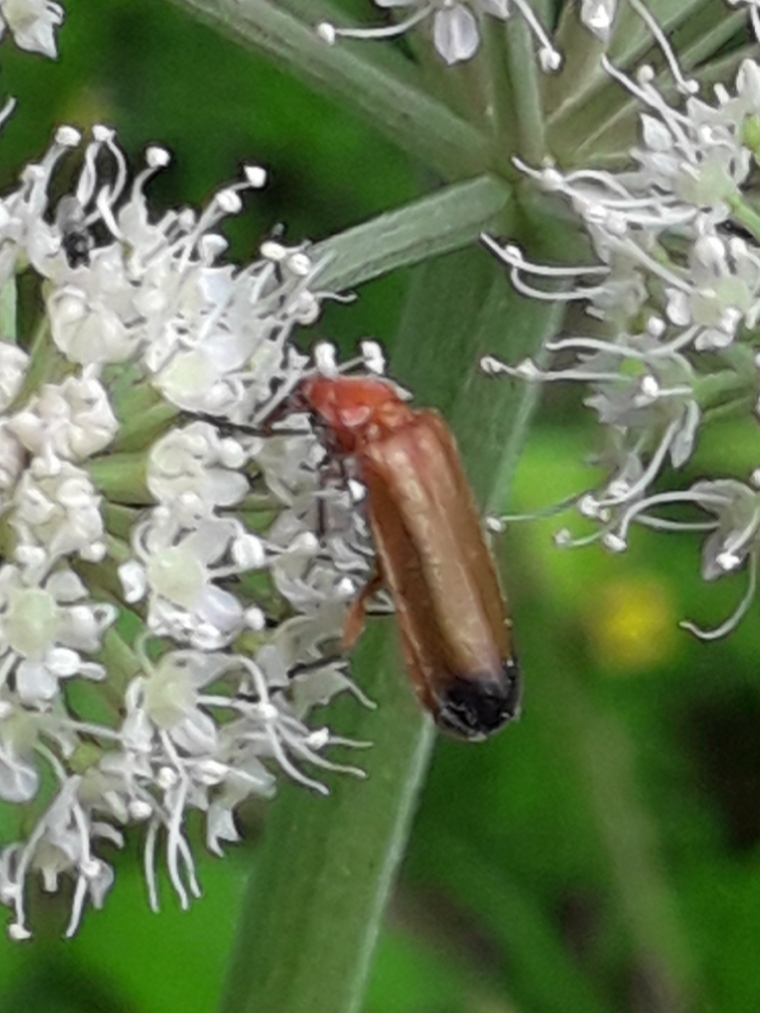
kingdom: Animalia
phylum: Arthropoda
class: Insecta
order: Coleoptera
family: Cantharidae
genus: Rhagonycha
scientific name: Rhagonycha fulva
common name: Common red soldier beetle
